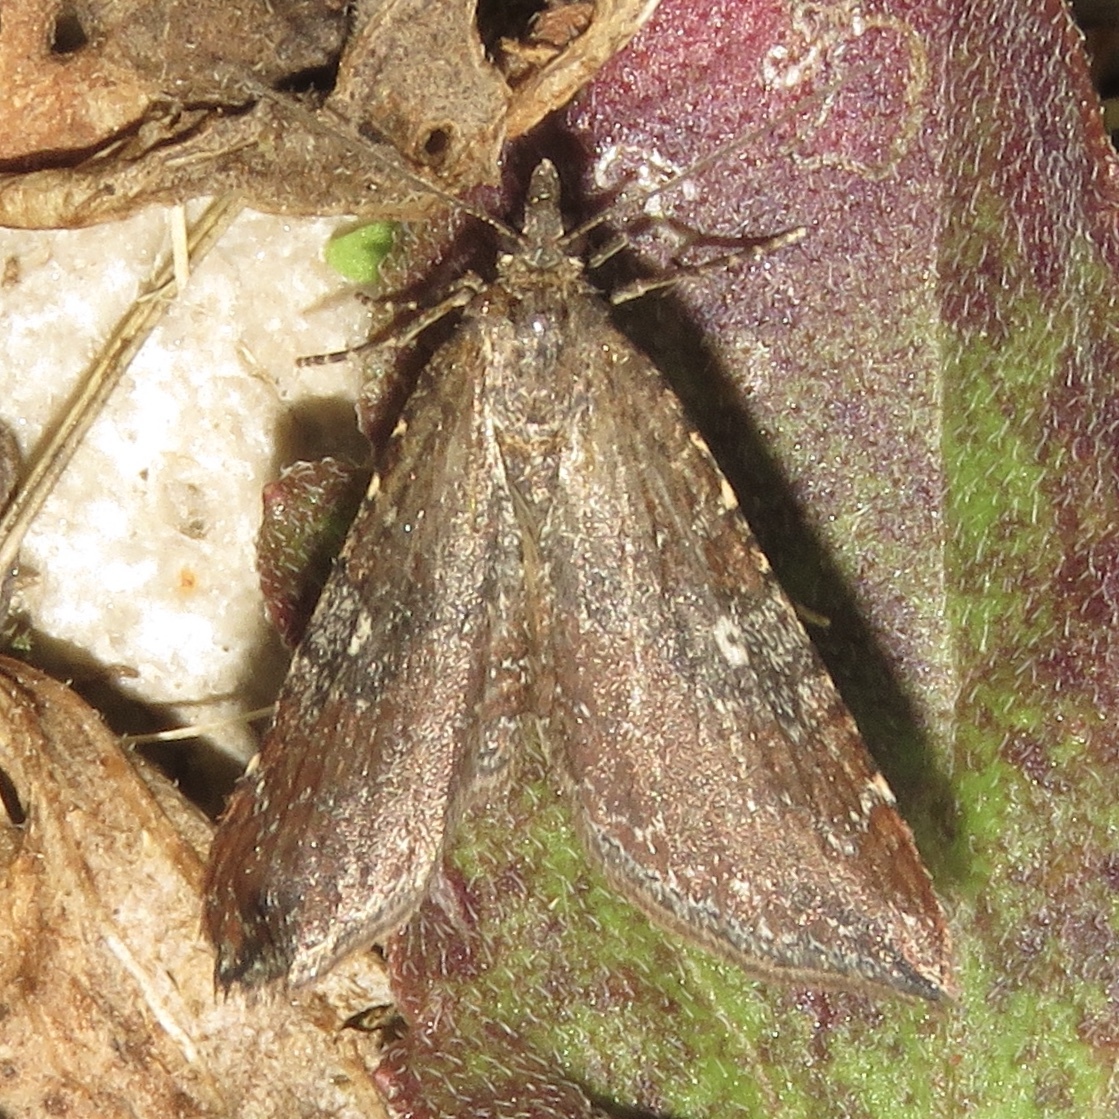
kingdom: Animalia
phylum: Arthropoda
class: Insecta
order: Lepidoptera
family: Geometridae
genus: Orthonama
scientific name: Orthonama obstipata
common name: The gem
